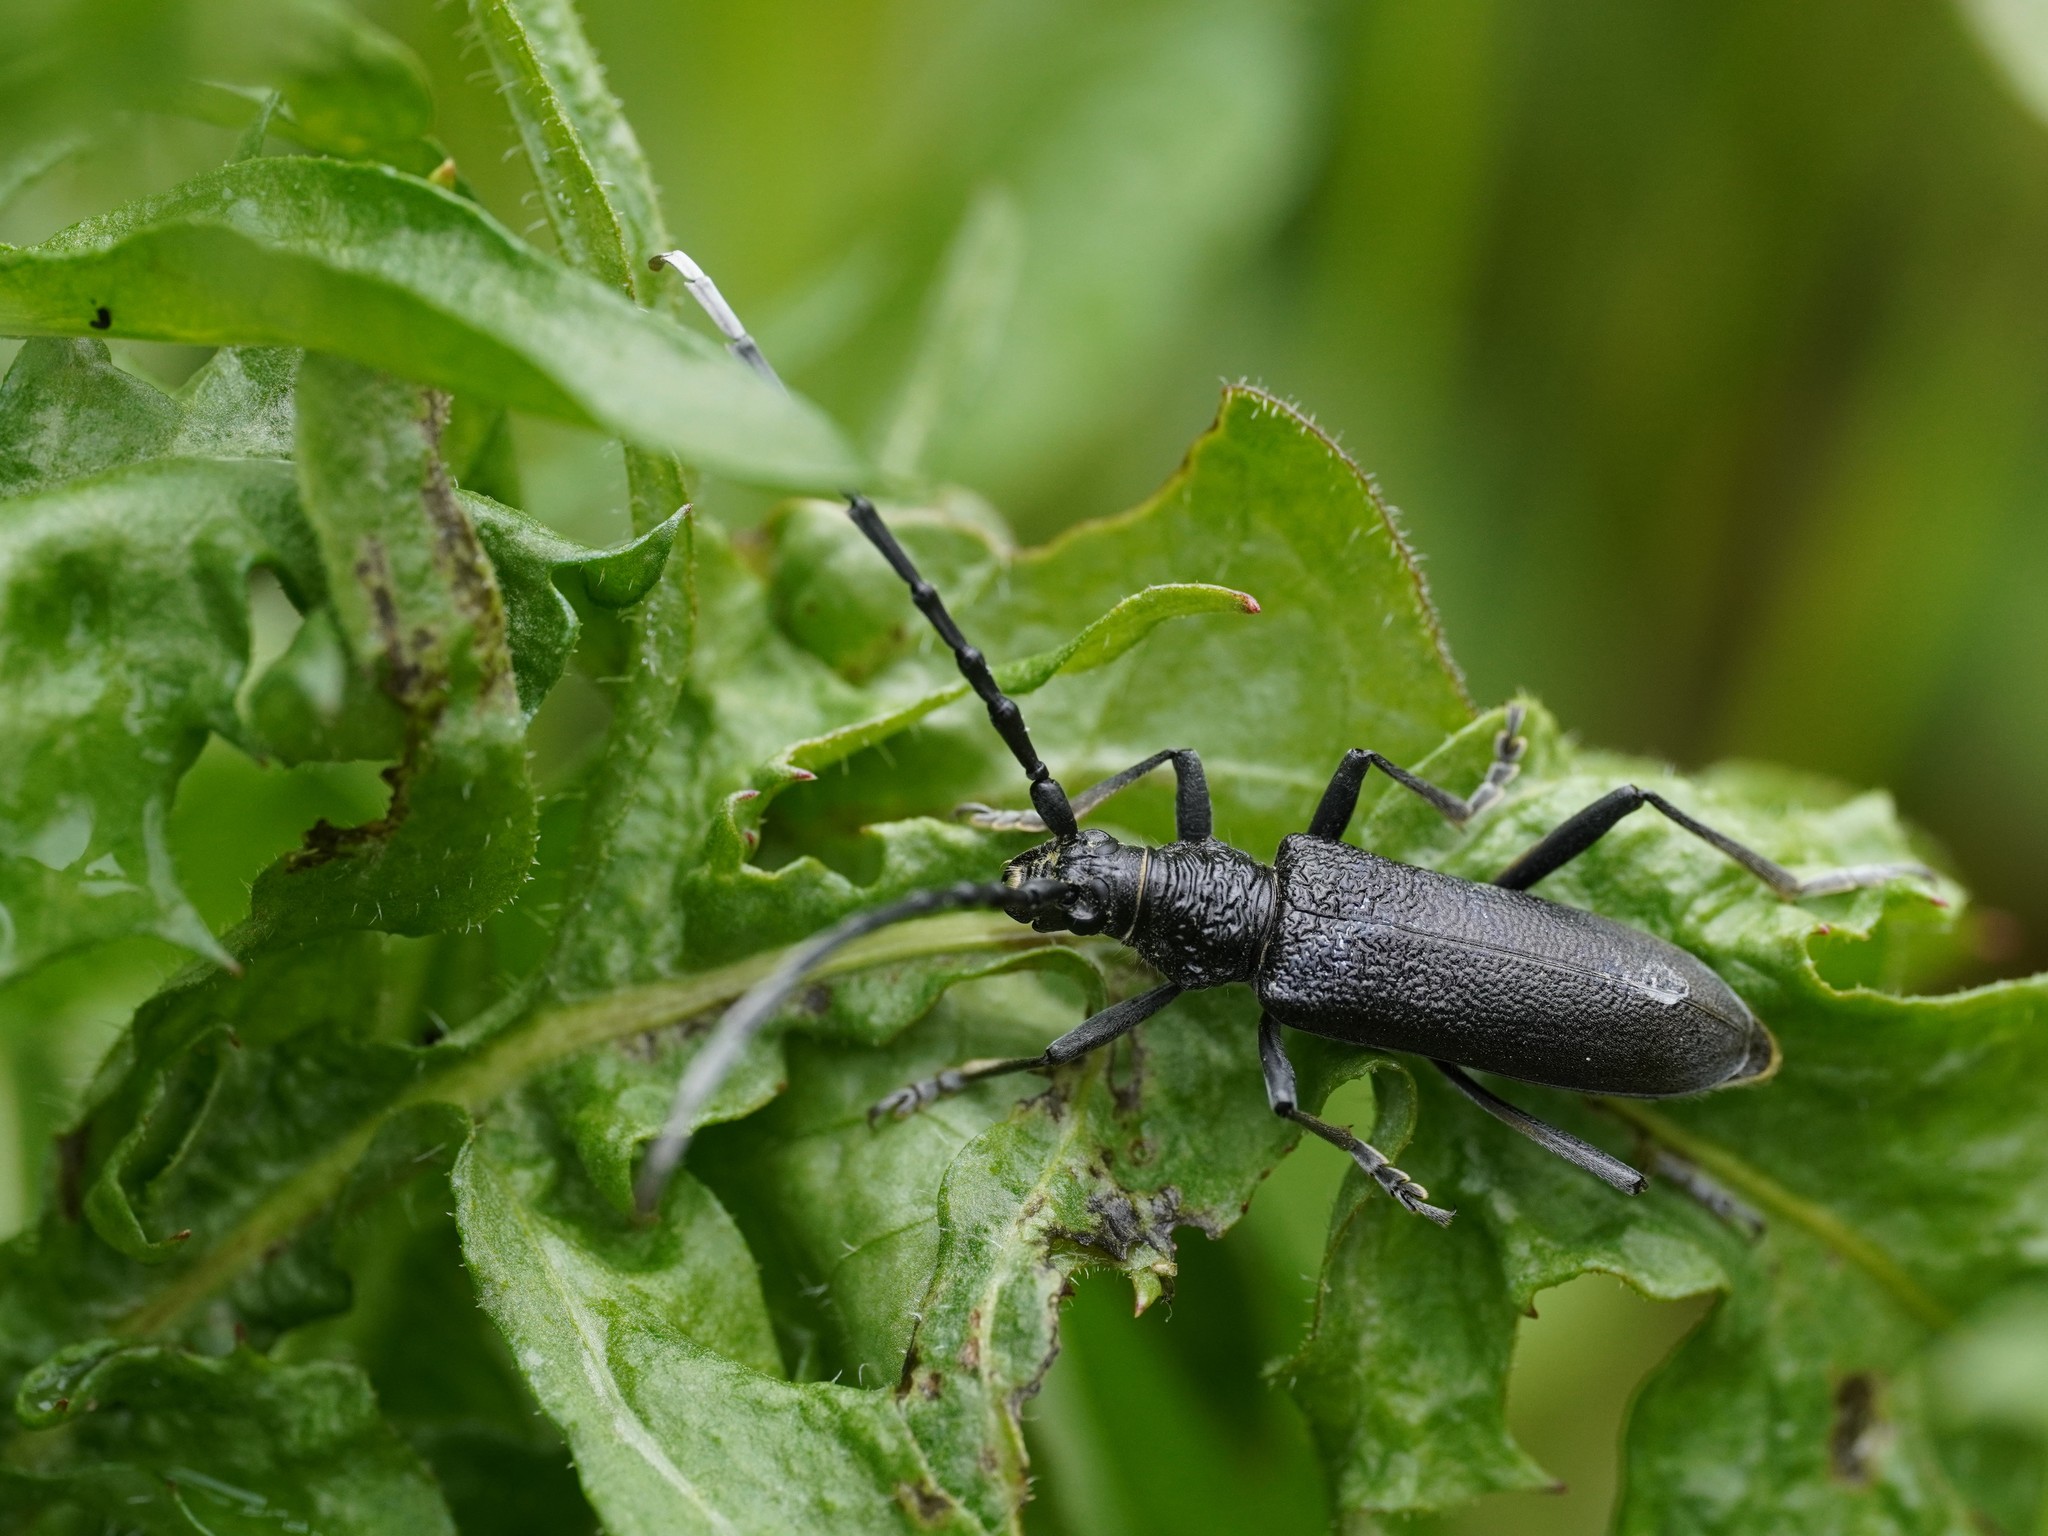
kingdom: Animalia
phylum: Arthropoda
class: Insecta
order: Coleoptera
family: Cerambycidae
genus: Cerambyx
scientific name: Cerambyx scopolii
